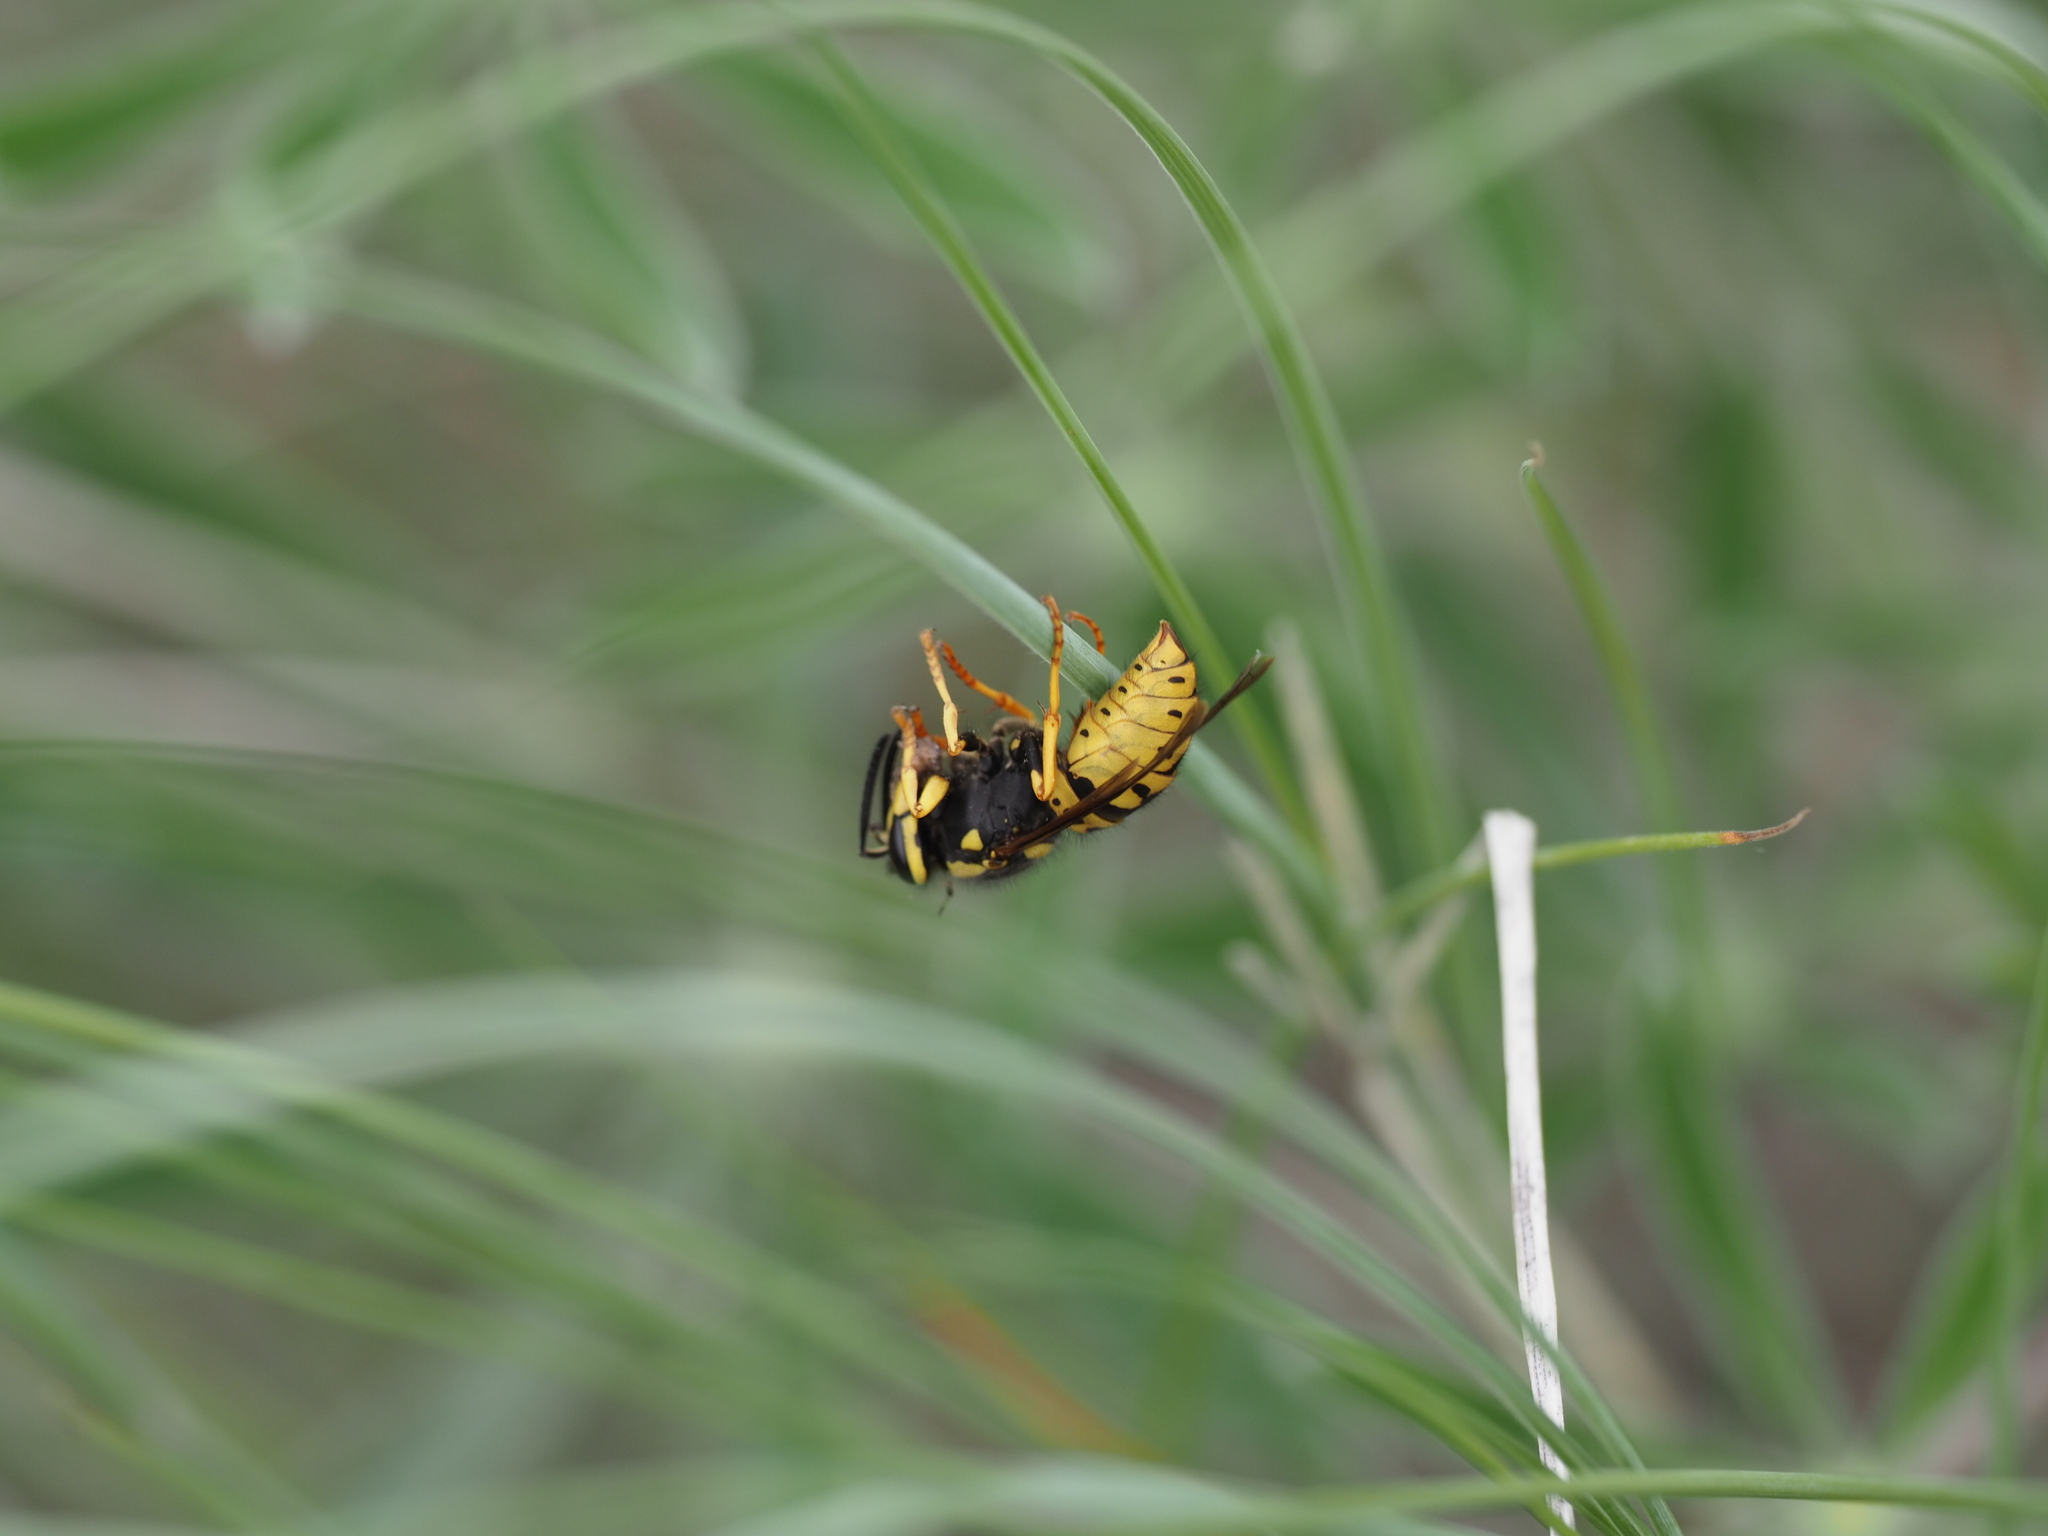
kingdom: Animalia
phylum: Arthropoda
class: Insecta
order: Hymenoptera
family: Vespidae
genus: Vespula
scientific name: Vespula atropilosa
